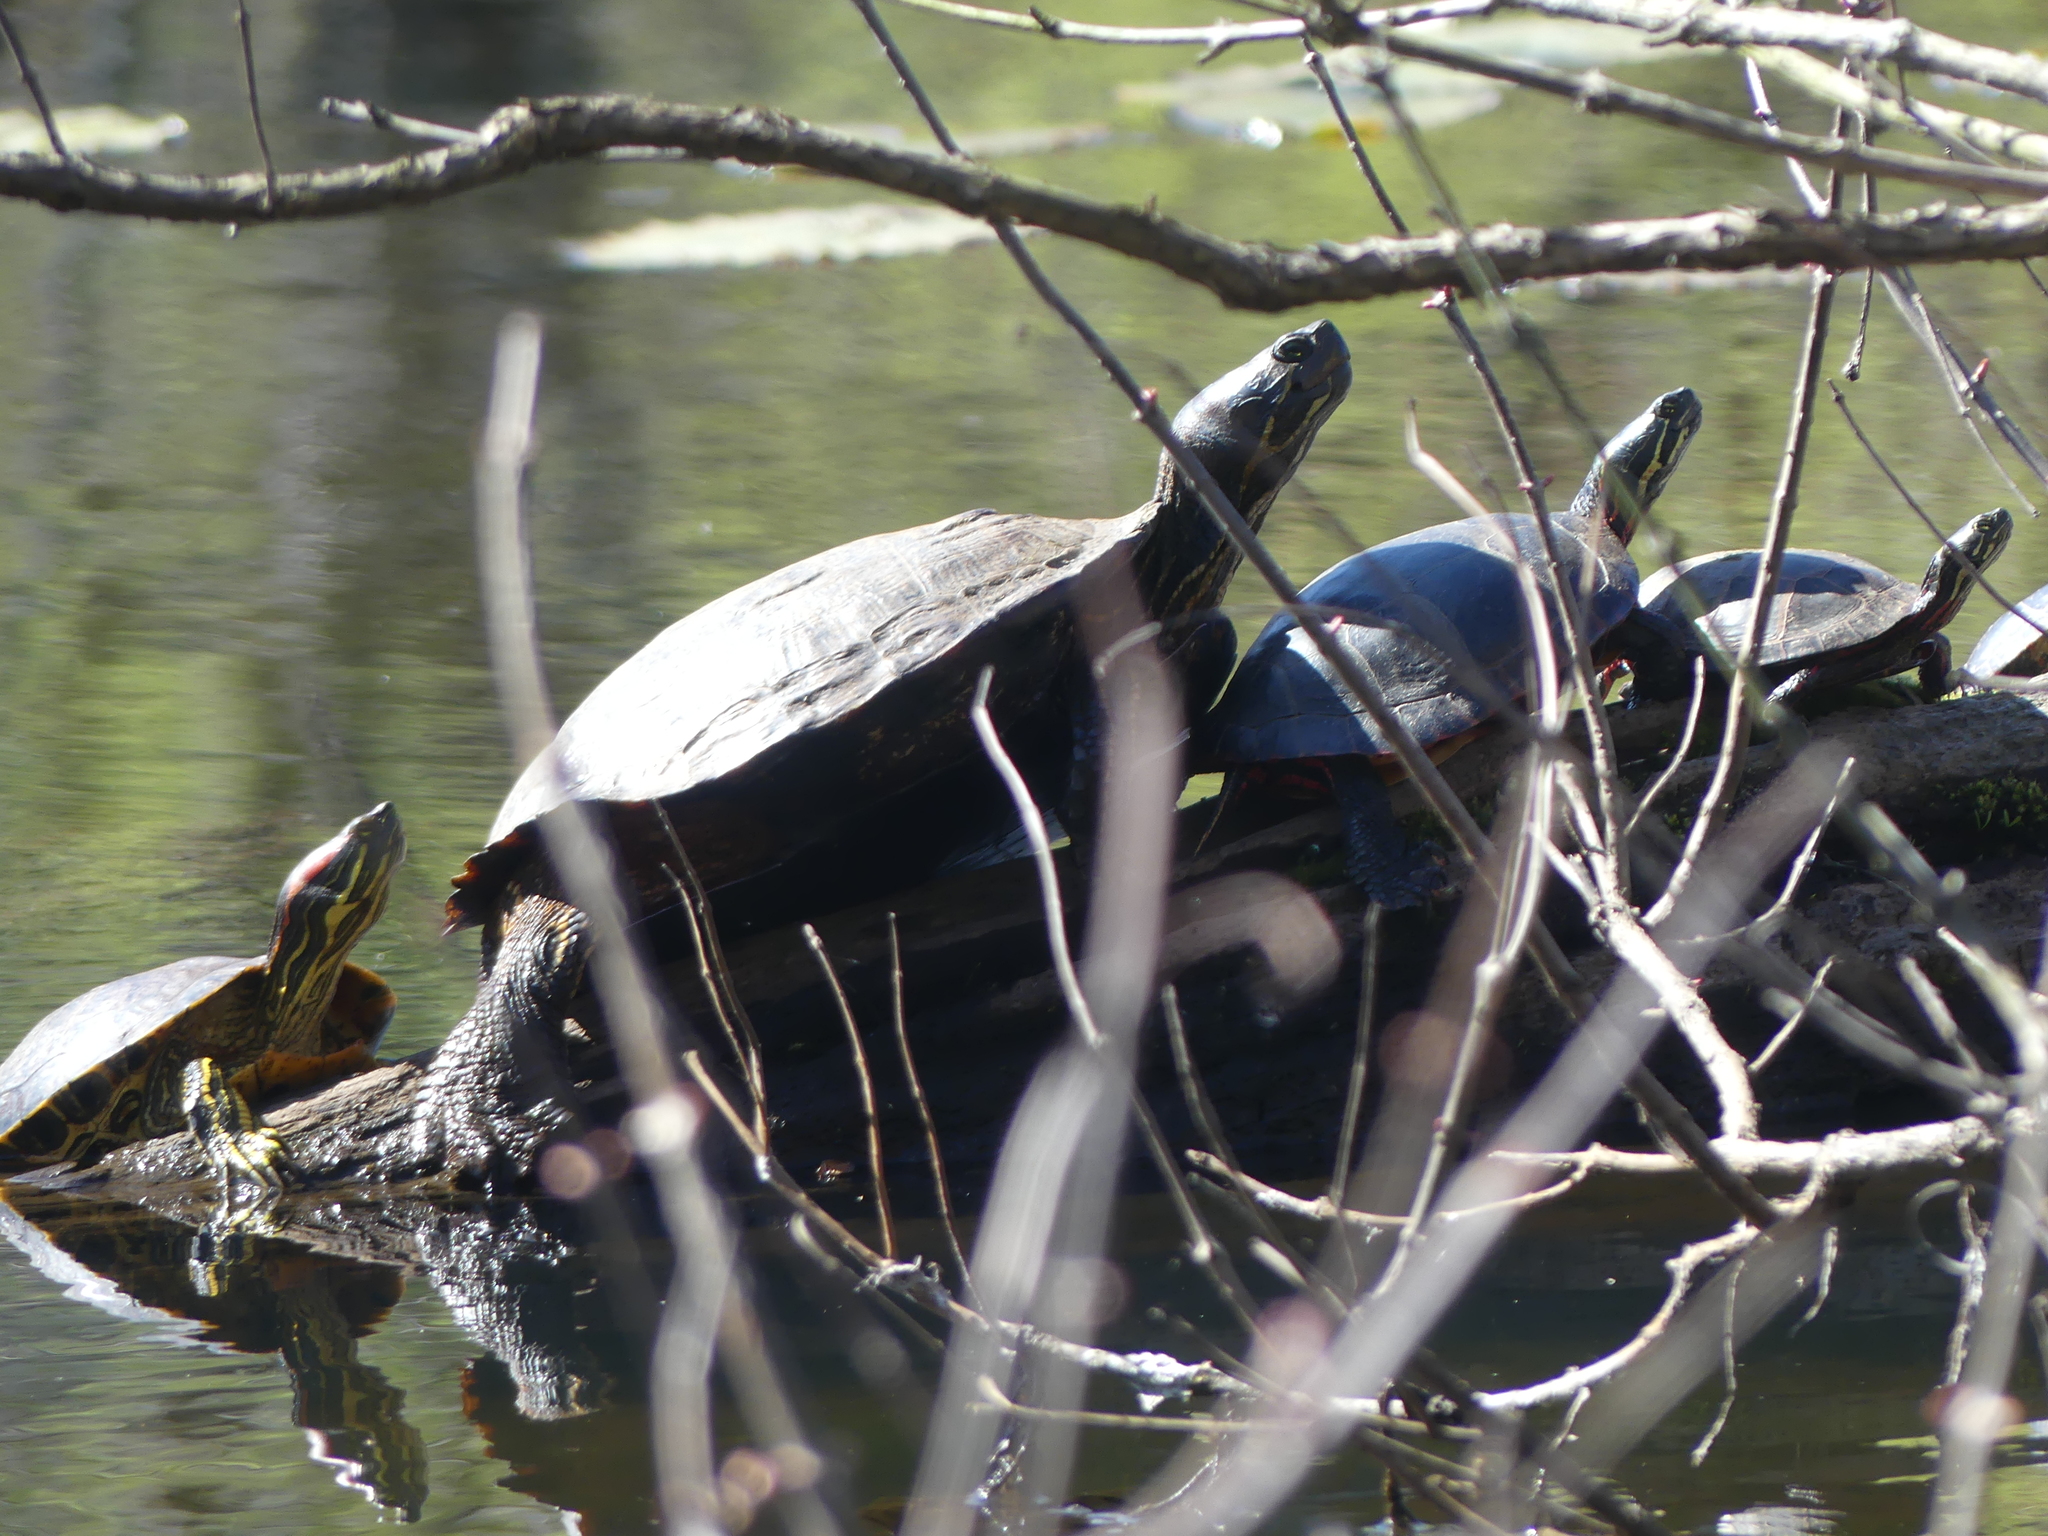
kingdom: Animalia
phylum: Chordata
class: Testudines
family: Emydidae
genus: Chrysemys
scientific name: Chrysemys picta
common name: Painted turtle
